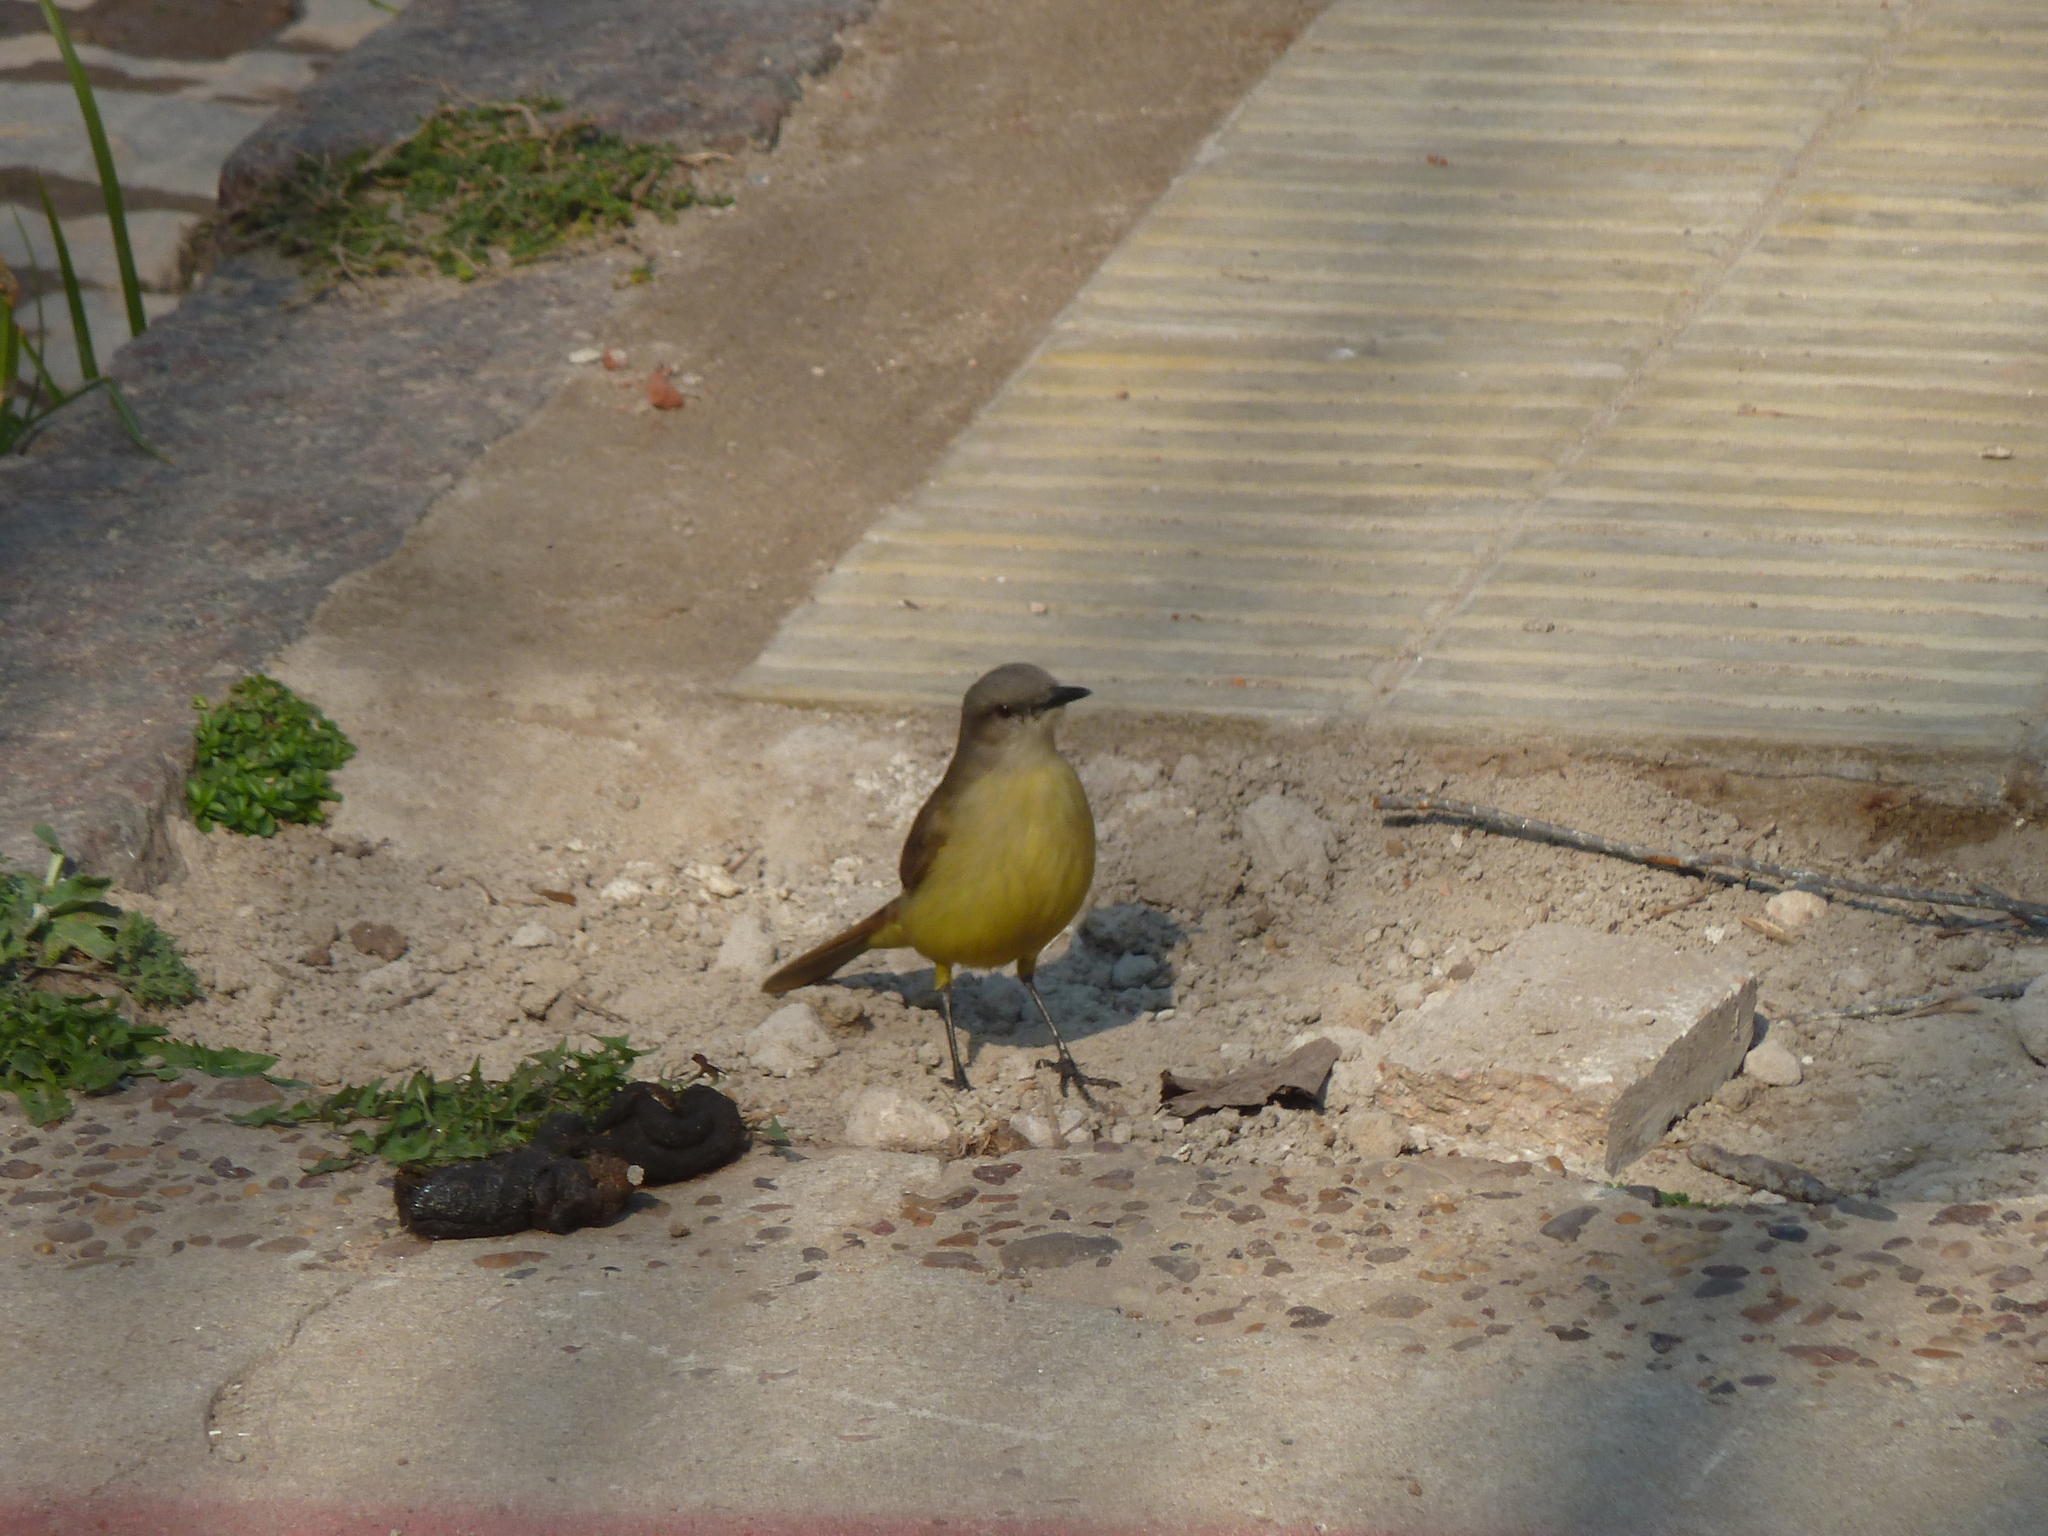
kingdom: Animalia
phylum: Chordata
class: Aves
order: Passeriformes
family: Tyrannidae
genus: Machetornis
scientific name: Machetornis rixosa
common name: Cattle tyrant
